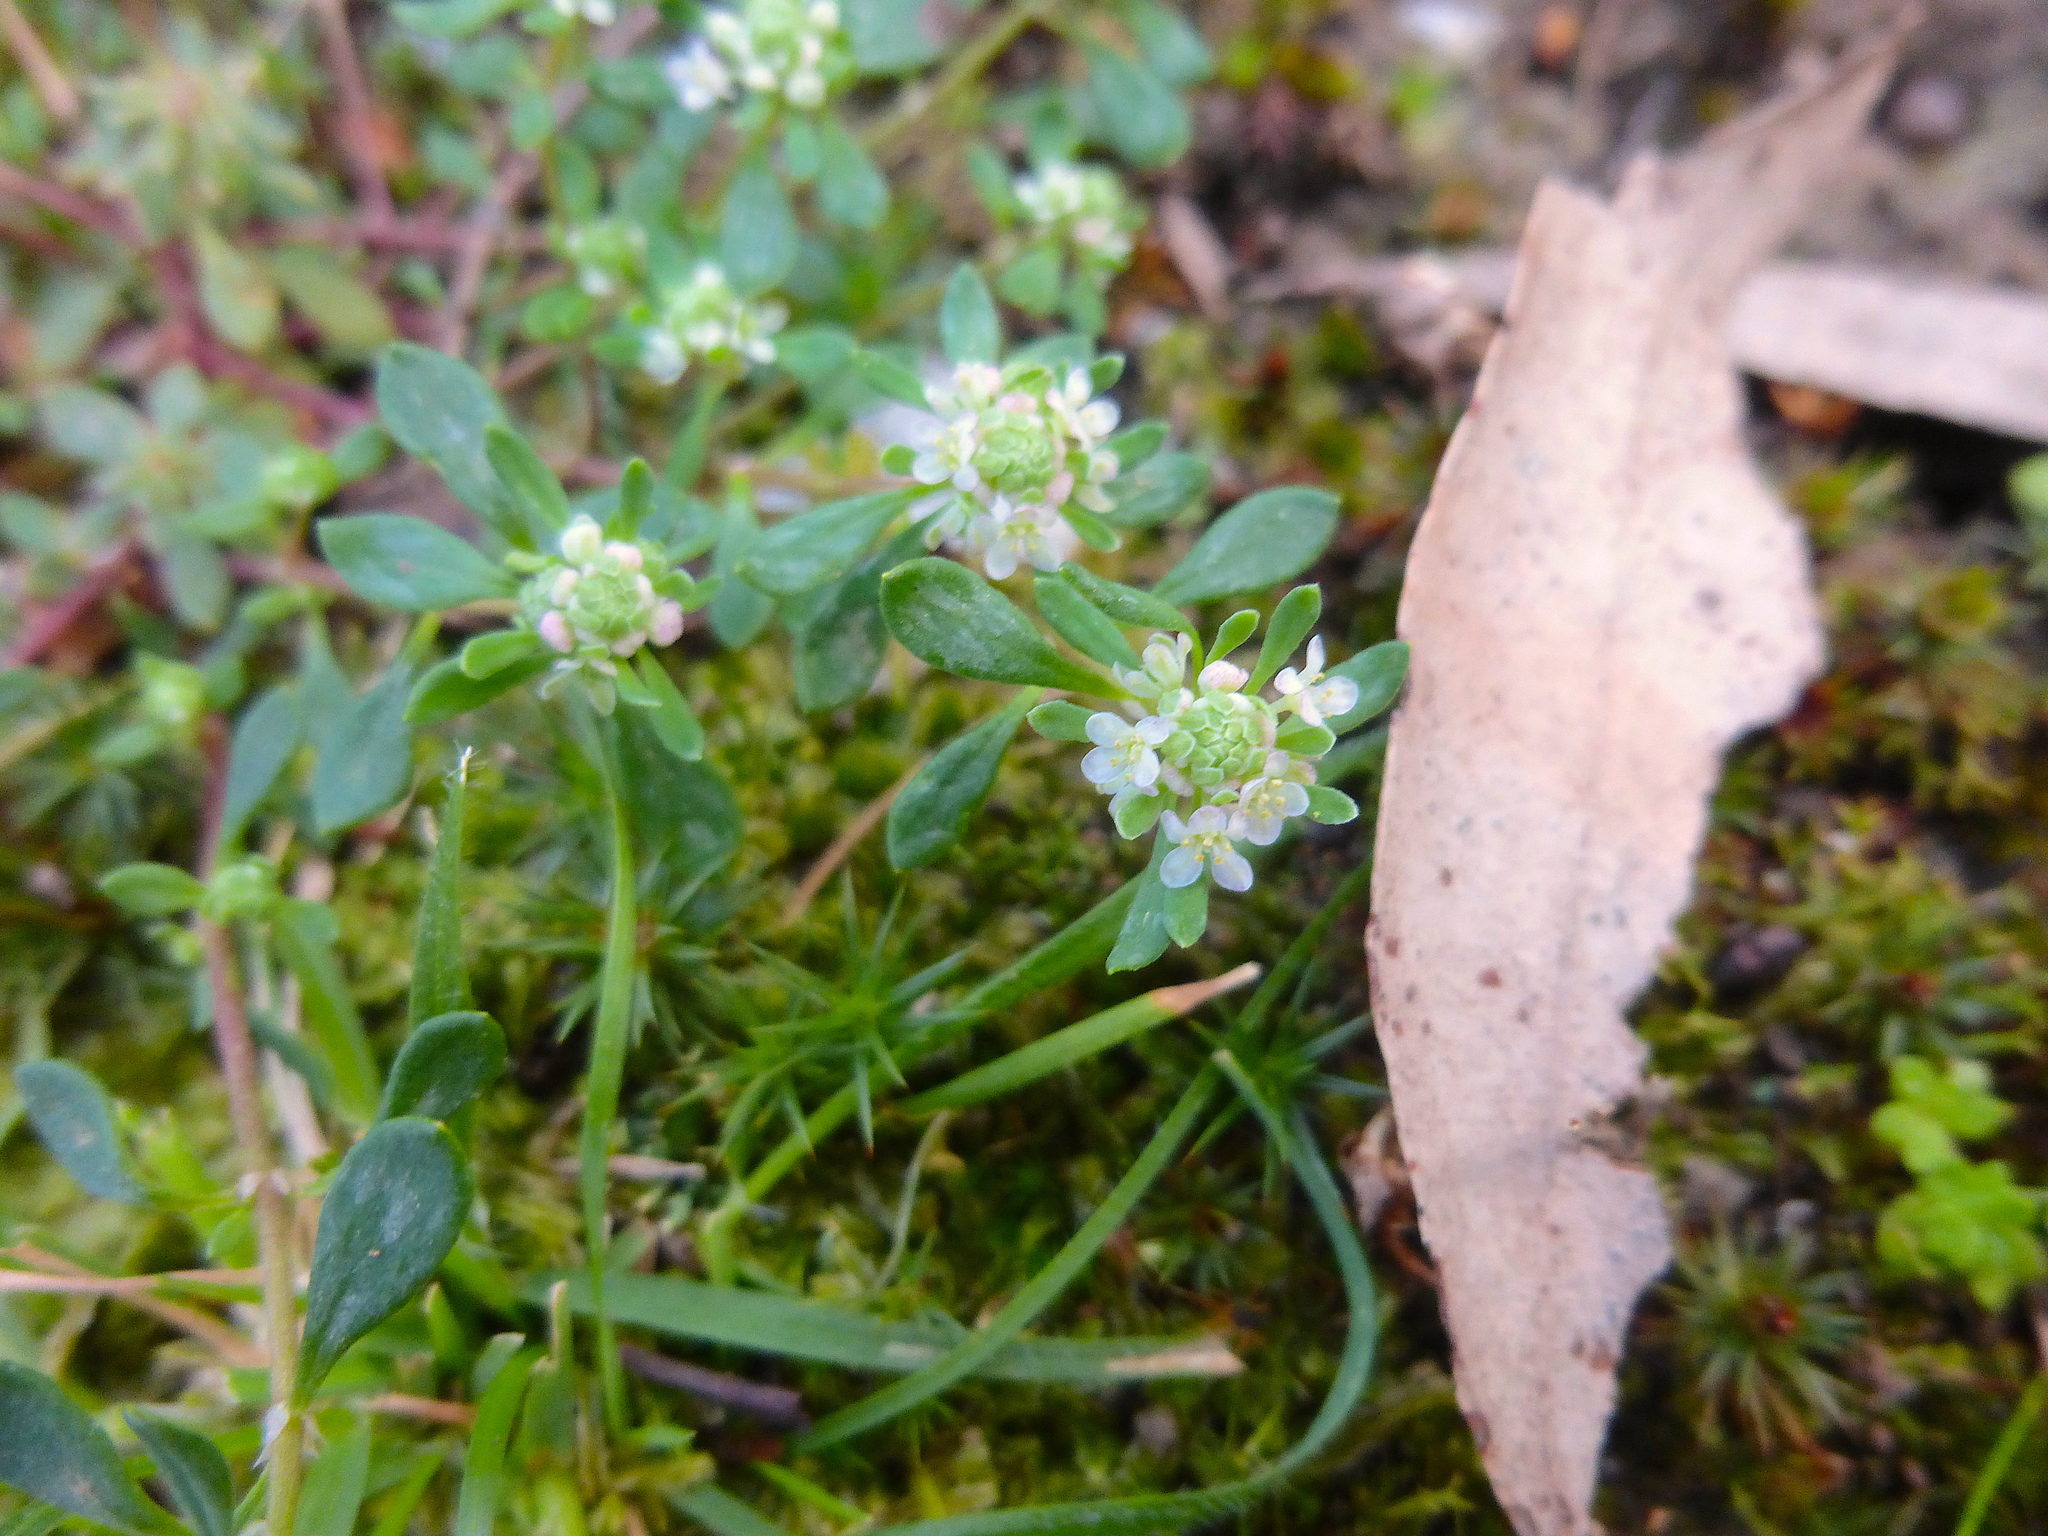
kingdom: Plantae
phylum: Tracheophyta
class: Magnoliopsida
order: Malpighiales
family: Phyllanthaceae
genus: Poranthera
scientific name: Poranthera microphylla
